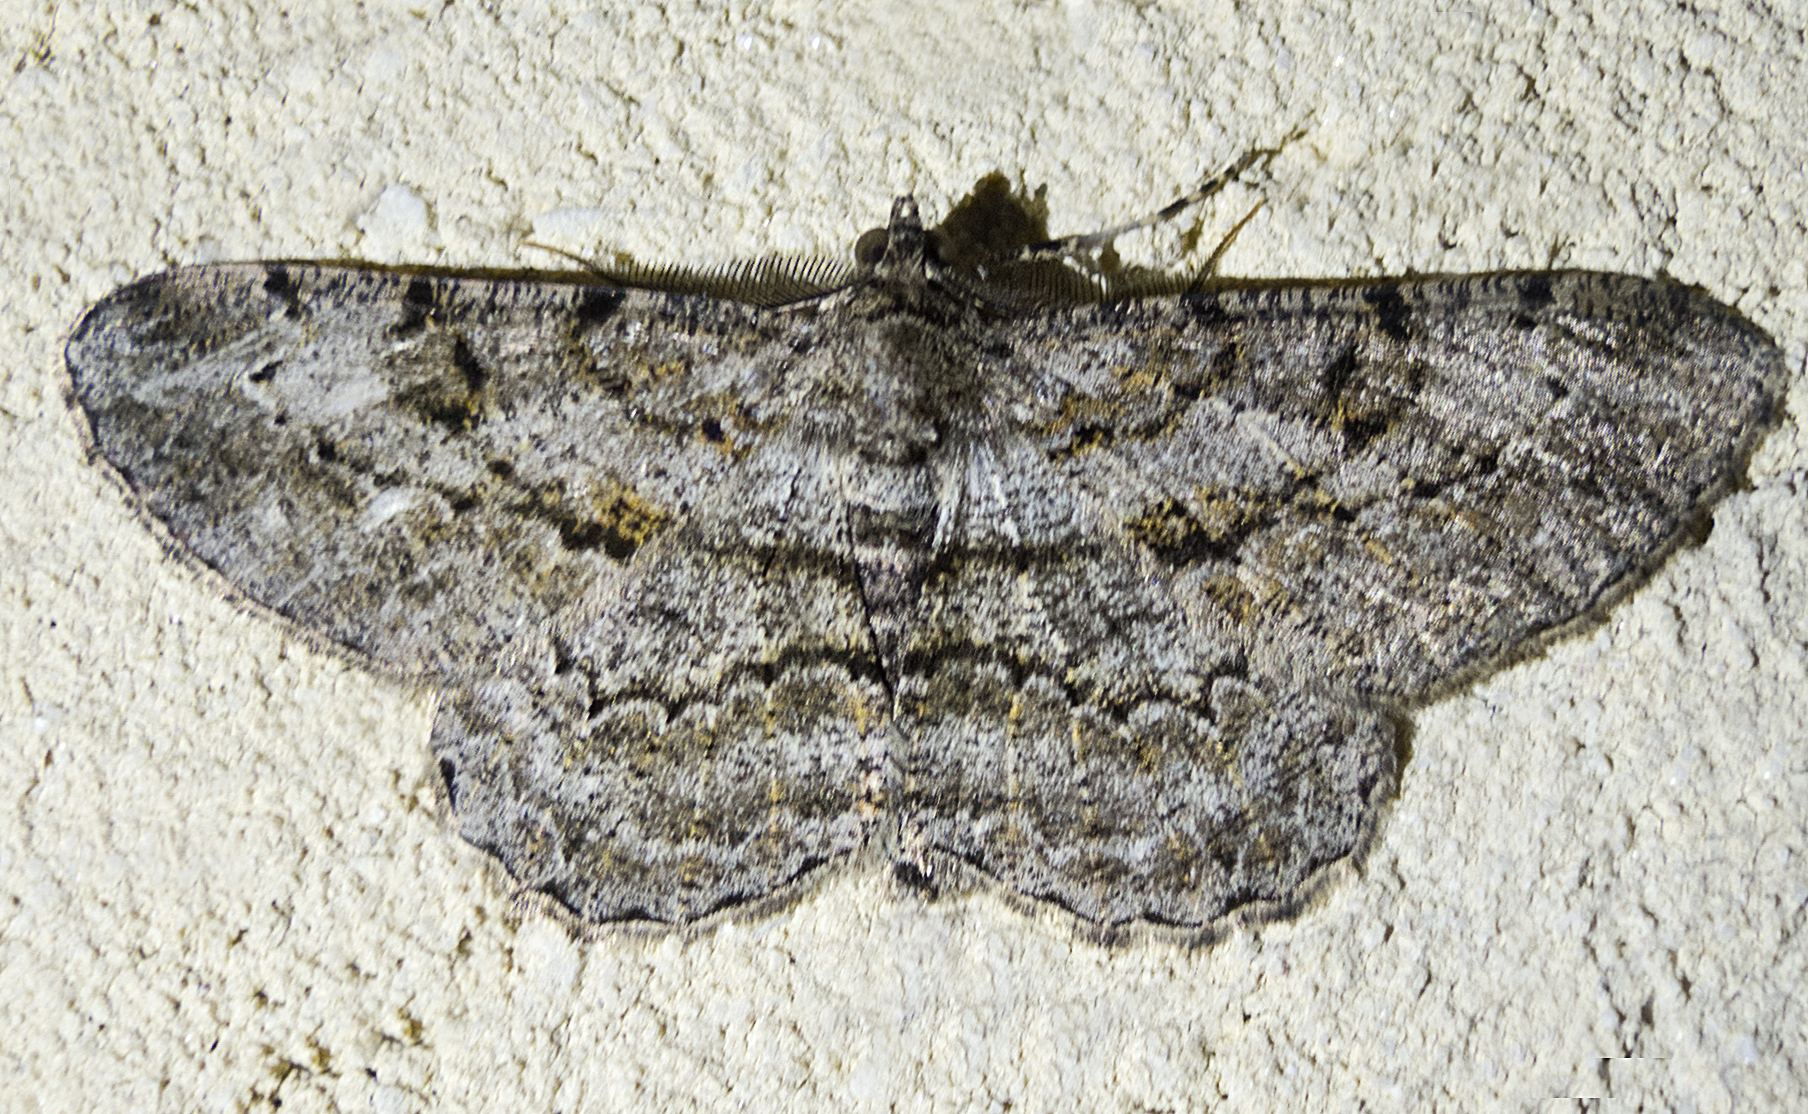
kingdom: Animalia
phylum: Arthropoda
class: Insecta
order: Lepidoptera
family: Geometridae
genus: Peribatodes
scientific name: Peribatodes rhomboidaria
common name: Willow beauty
